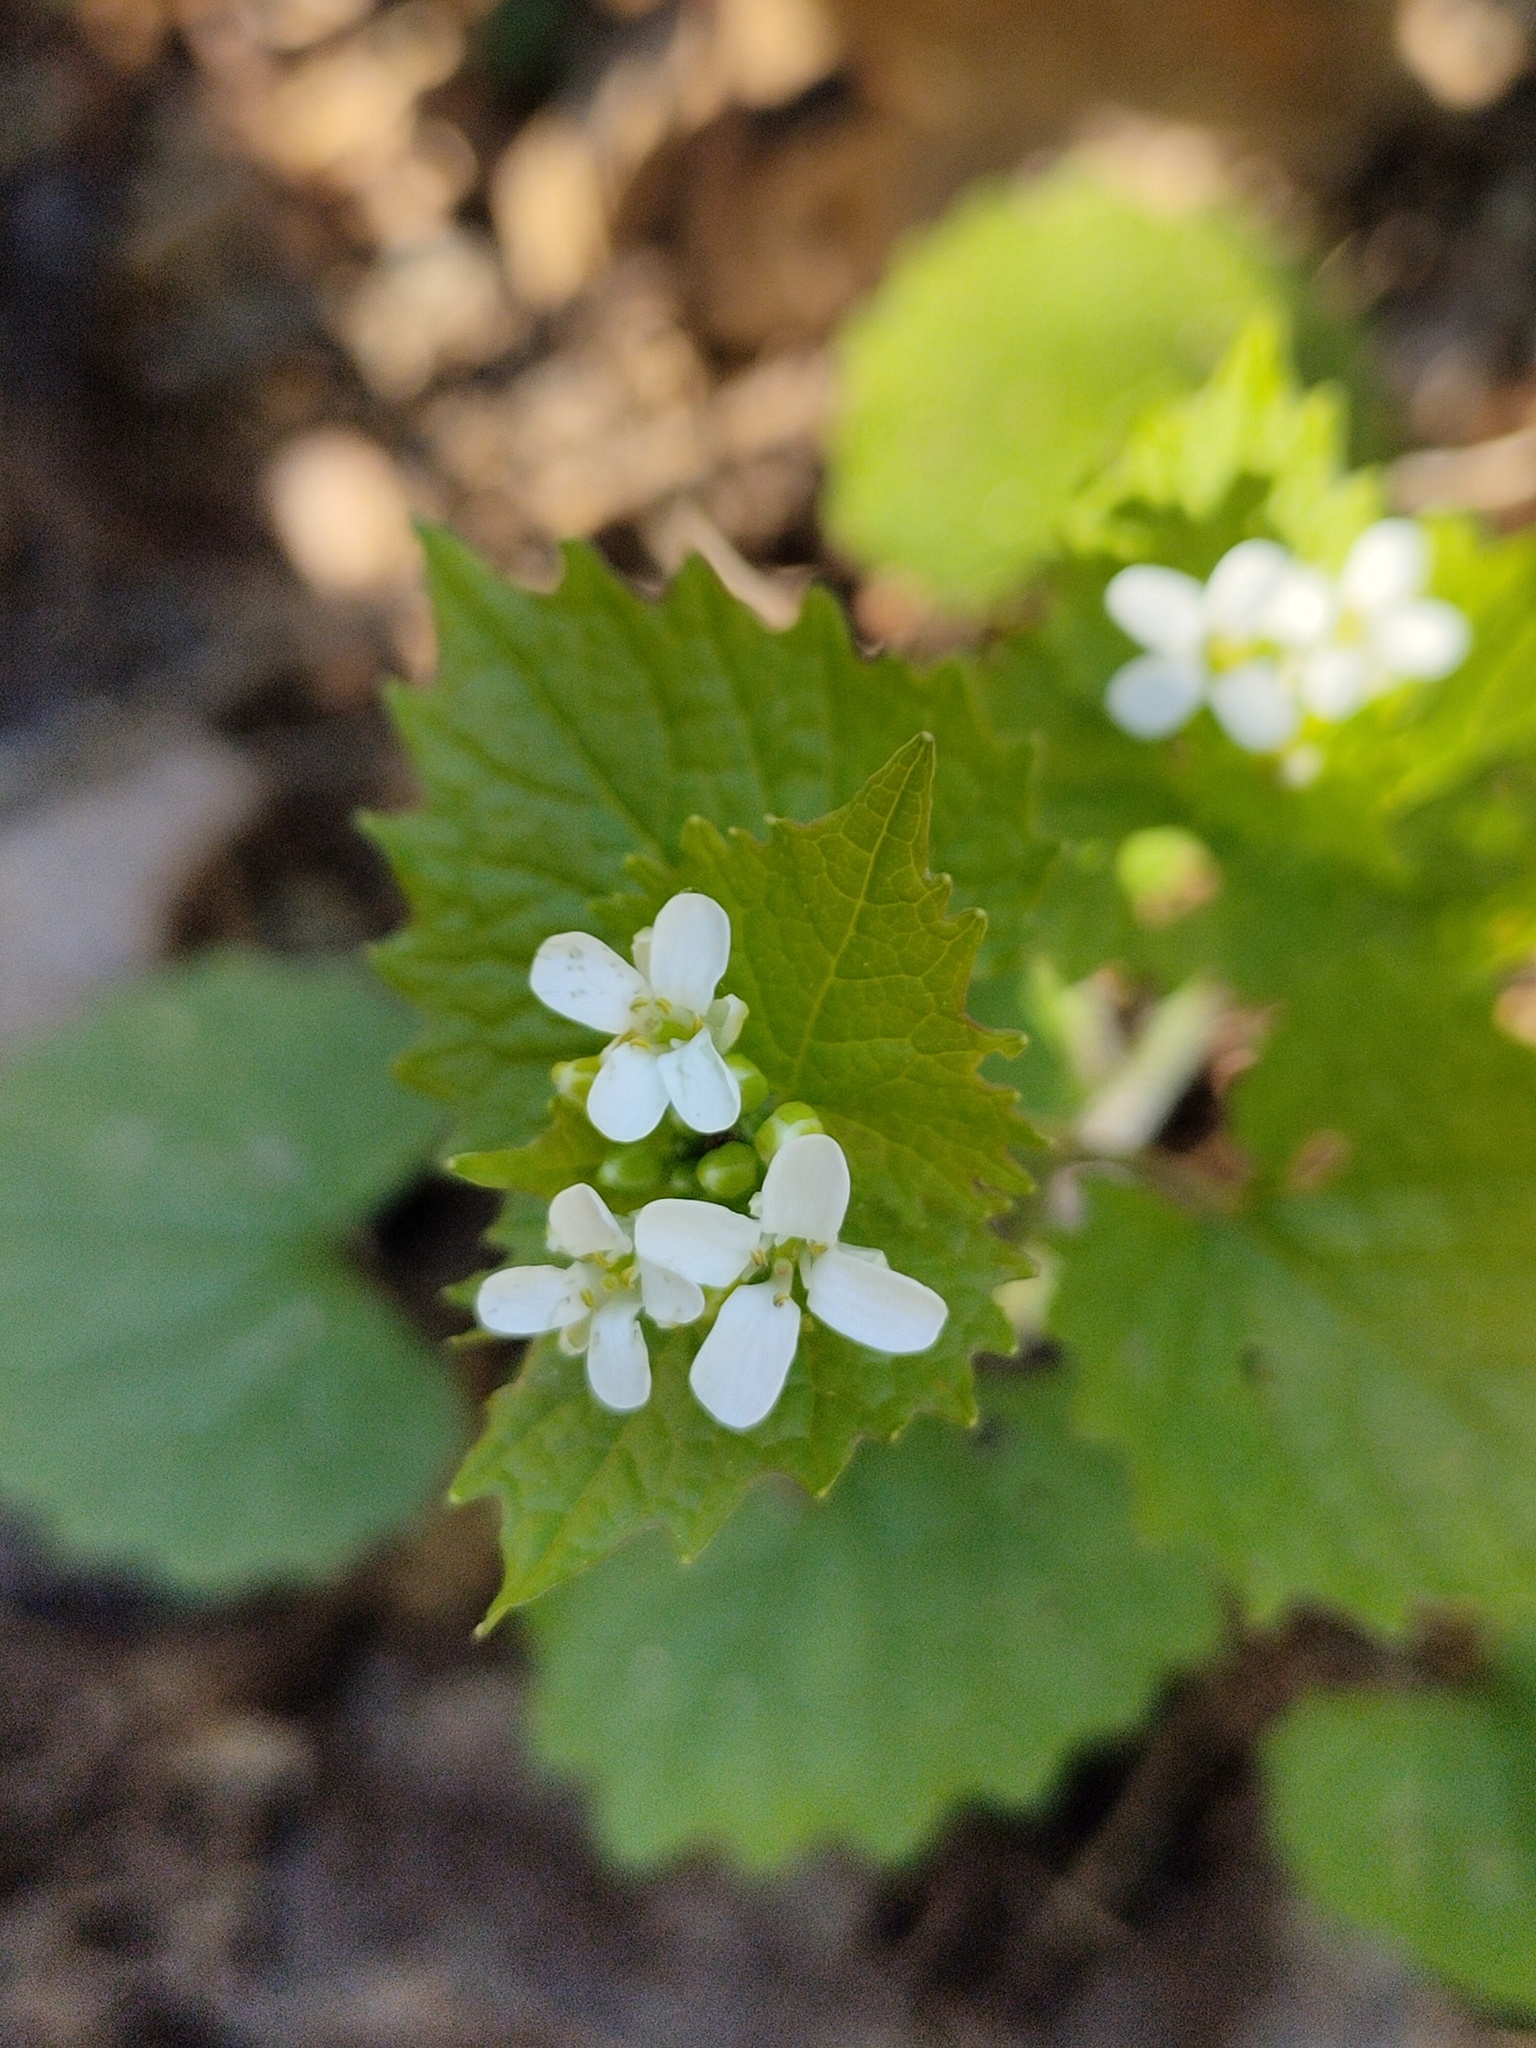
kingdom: Plantae
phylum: Tracheophyta
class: Magnoliopsida
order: Brassicales
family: Brassicaceae
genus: Alliaria
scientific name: Alliaria petiolata
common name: Garlic mustard
